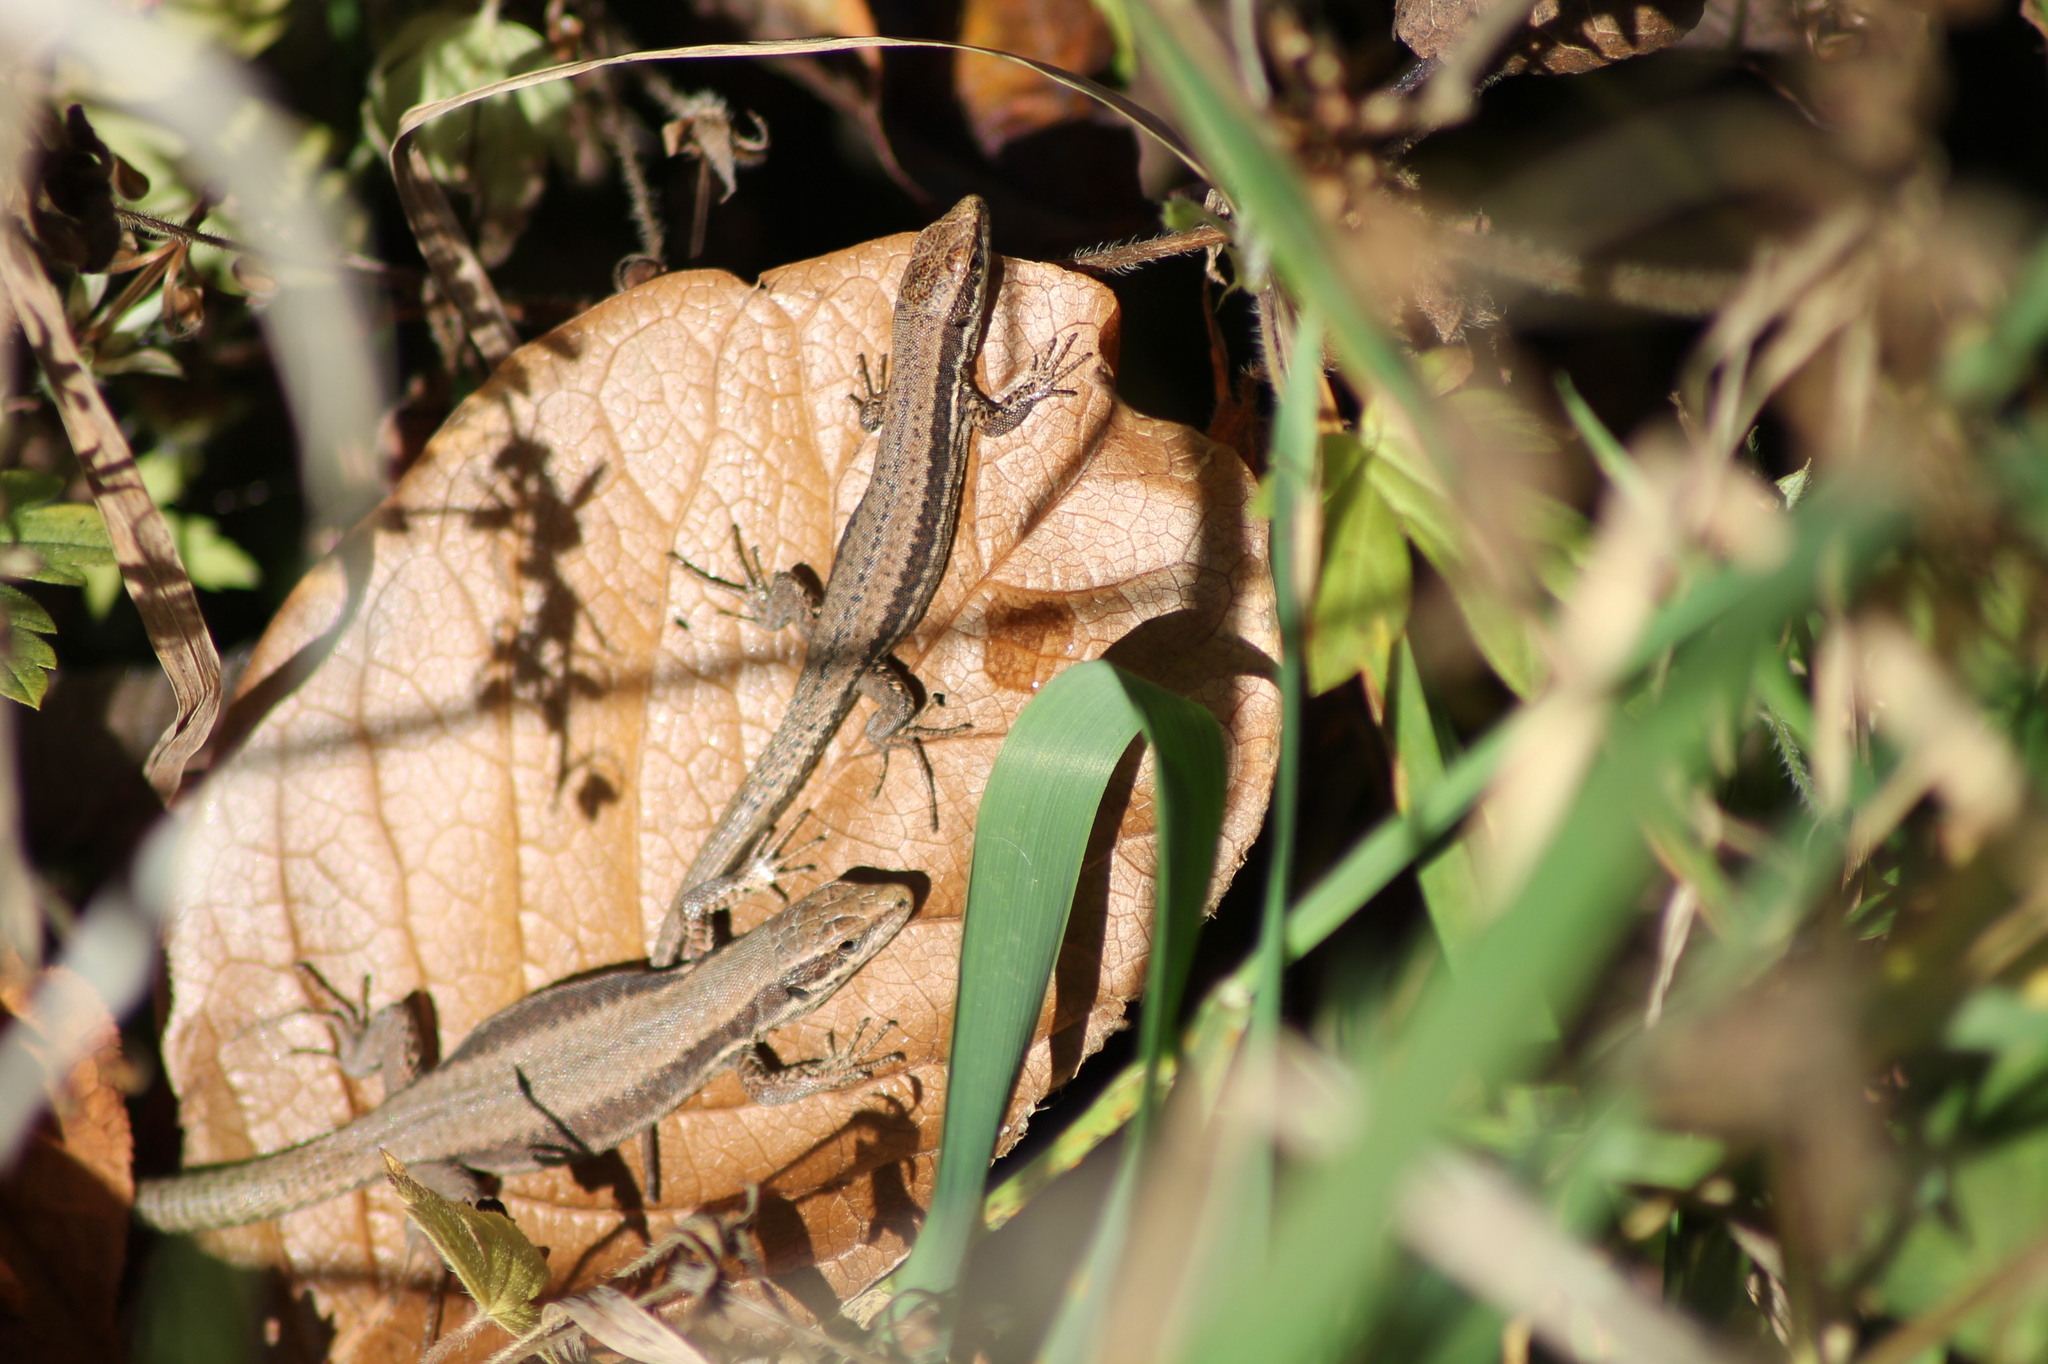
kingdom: Animalia
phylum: Chordata
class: Squamata
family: Lacertidae
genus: Podarcis
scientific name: Podarcis muralis
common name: Common wall lizard
